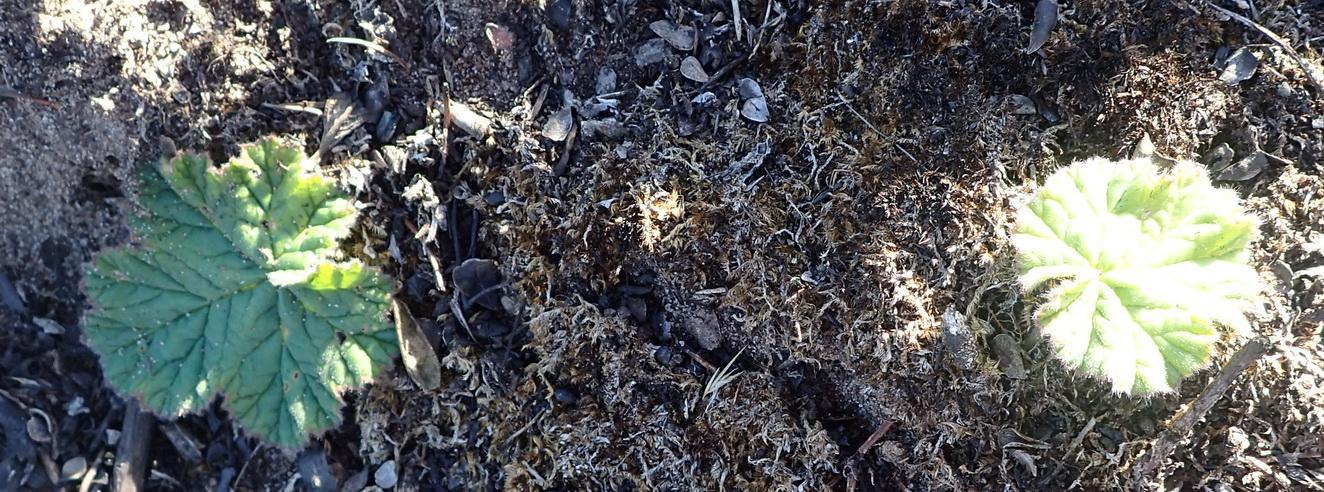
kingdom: Plantae
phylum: Tracheophyta
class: Magnoliopsida
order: Geraniales
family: Geraniaceae
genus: Pelargonium
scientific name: Pelargonium lobatum
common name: Vine-leaf pelargonium
